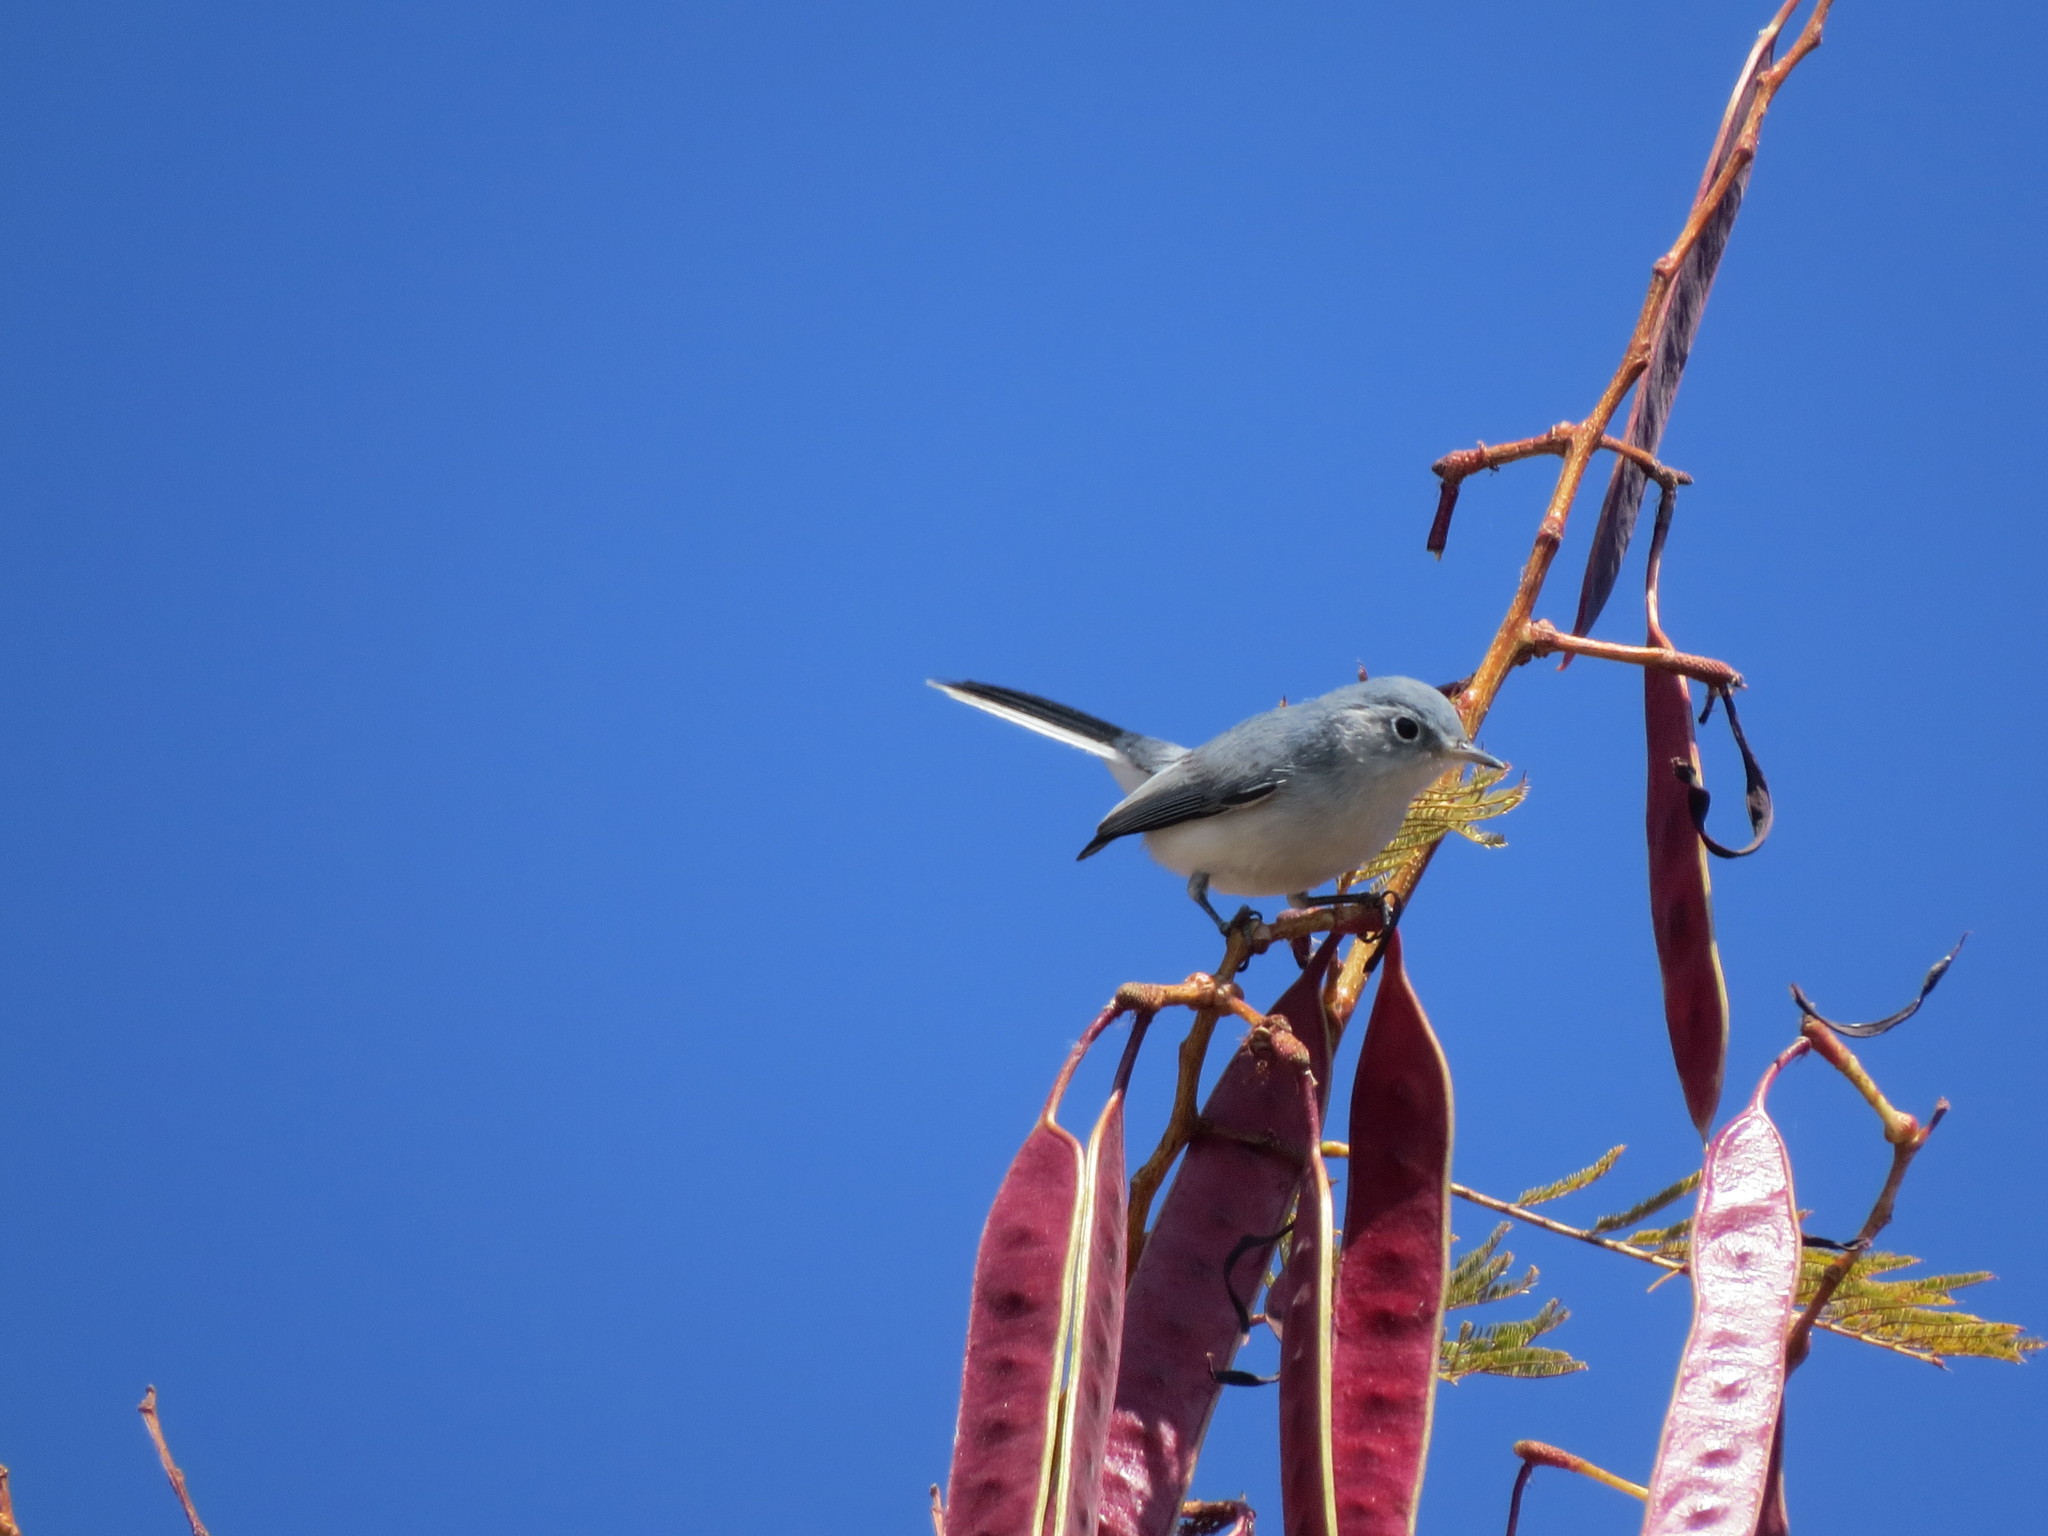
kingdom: Animalia
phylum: Chordata
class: Aves
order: Passeriformes
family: Polioptilidae
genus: Polioptila
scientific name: Polioptila caerulea
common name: Blue-gray gnatcatcher
